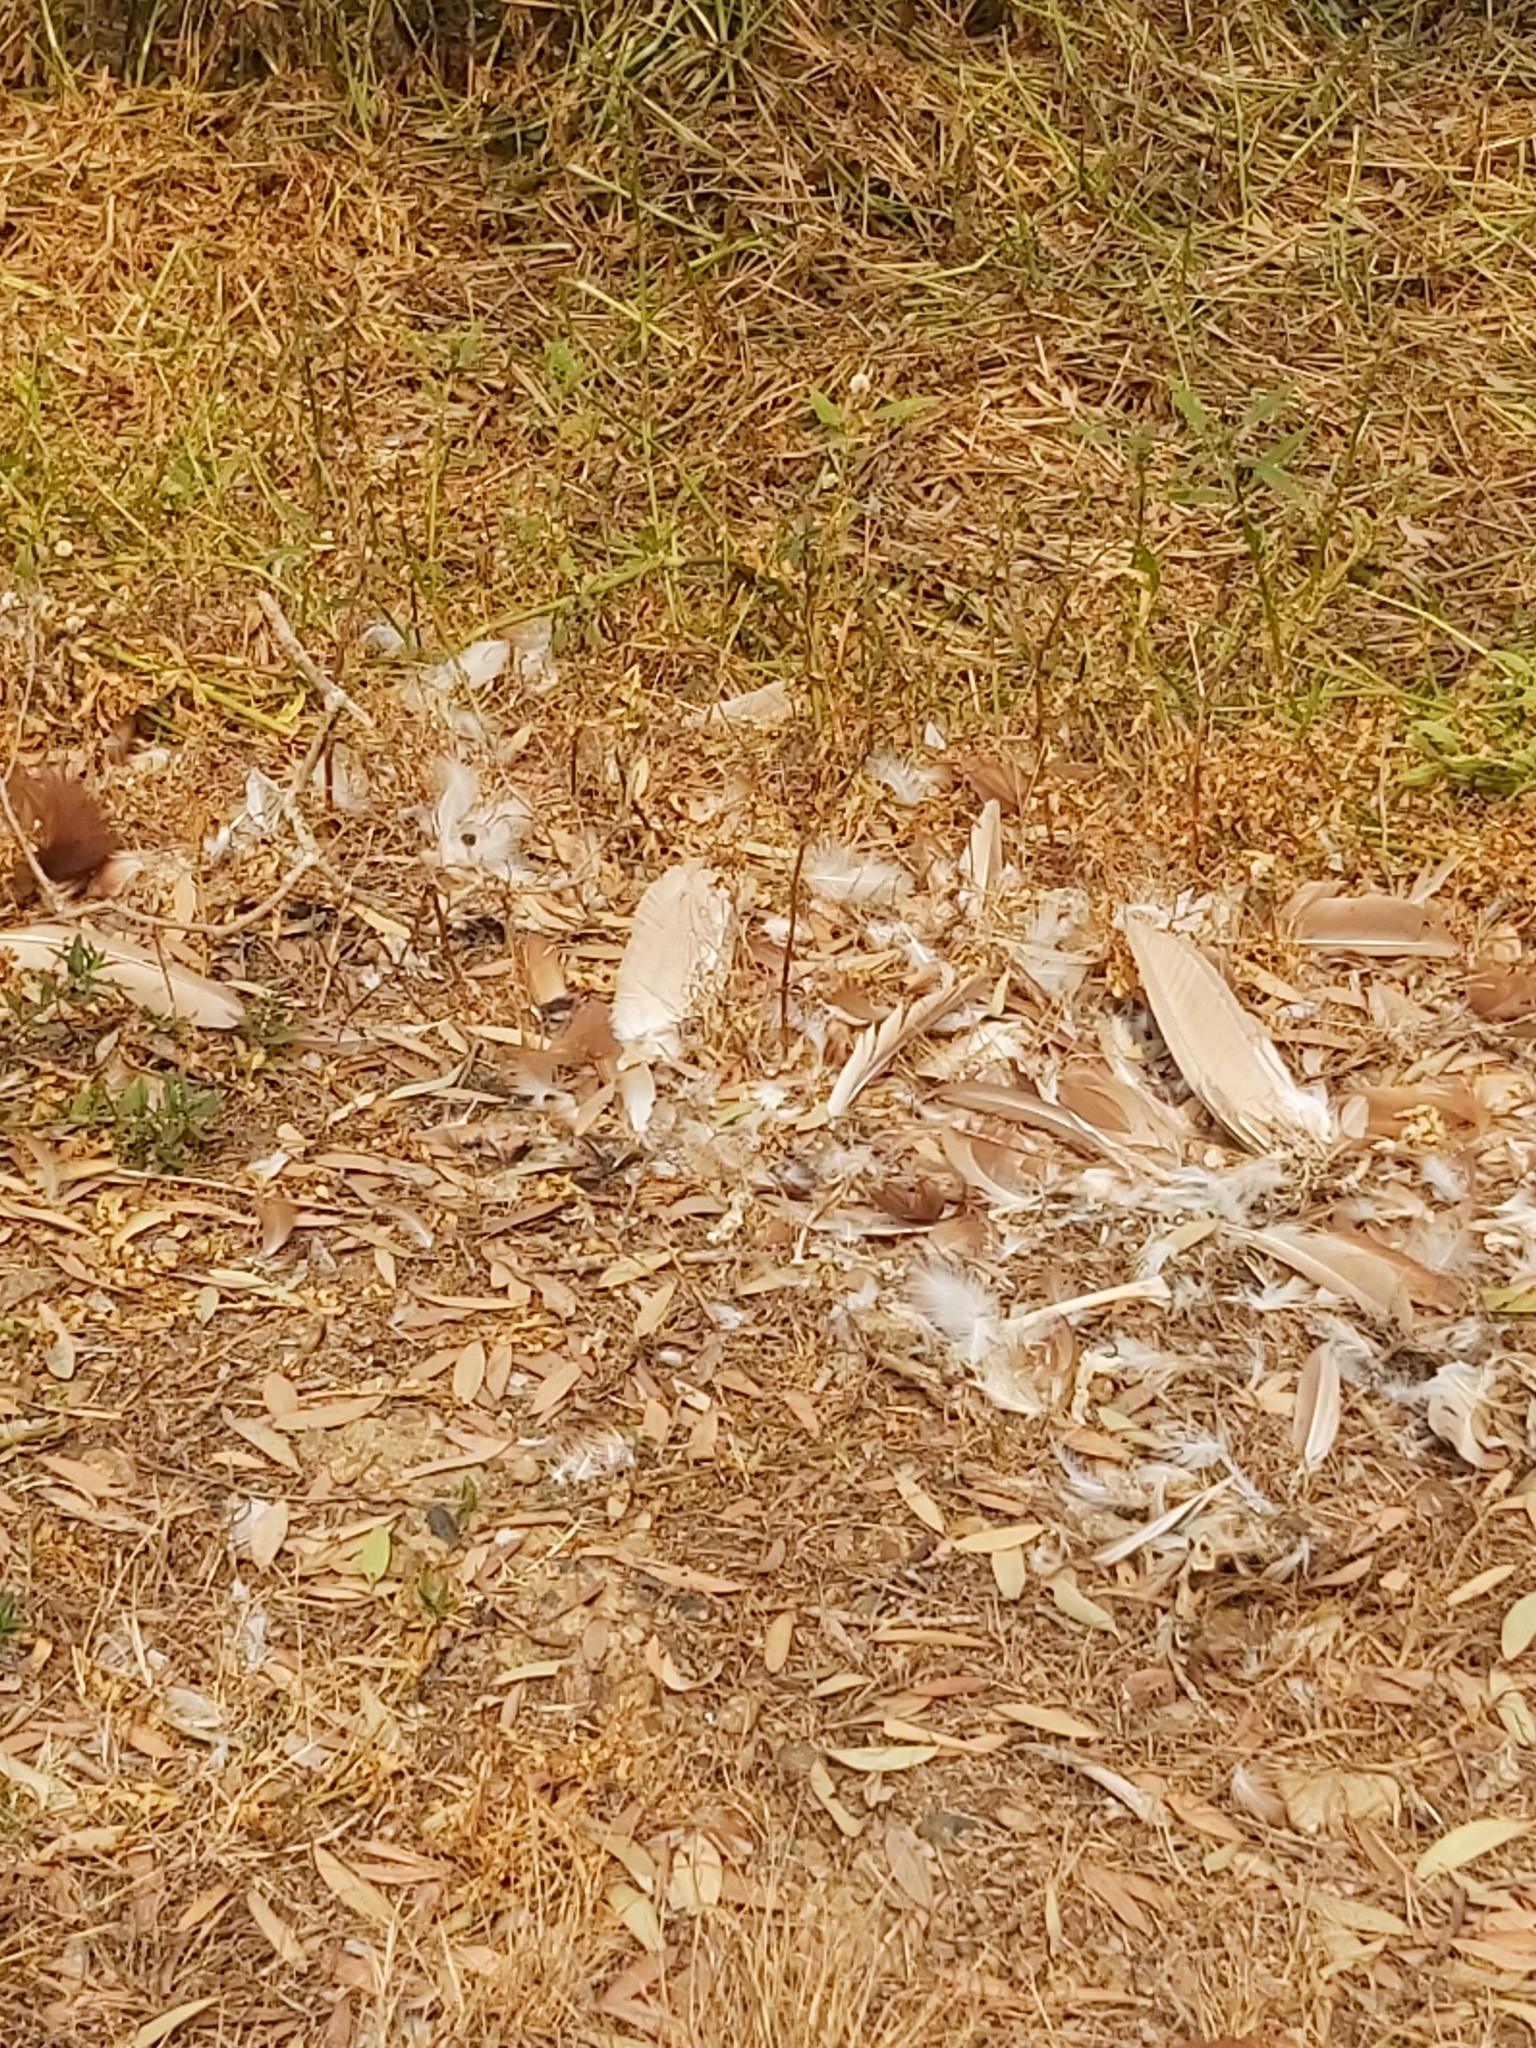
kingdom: Animalia
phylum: Chordata
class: Aves
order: Pelecaniformes
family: Ardeidae
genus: Nycticorax
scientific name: Nycticorax caledonicus
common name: Rufous night-heron
